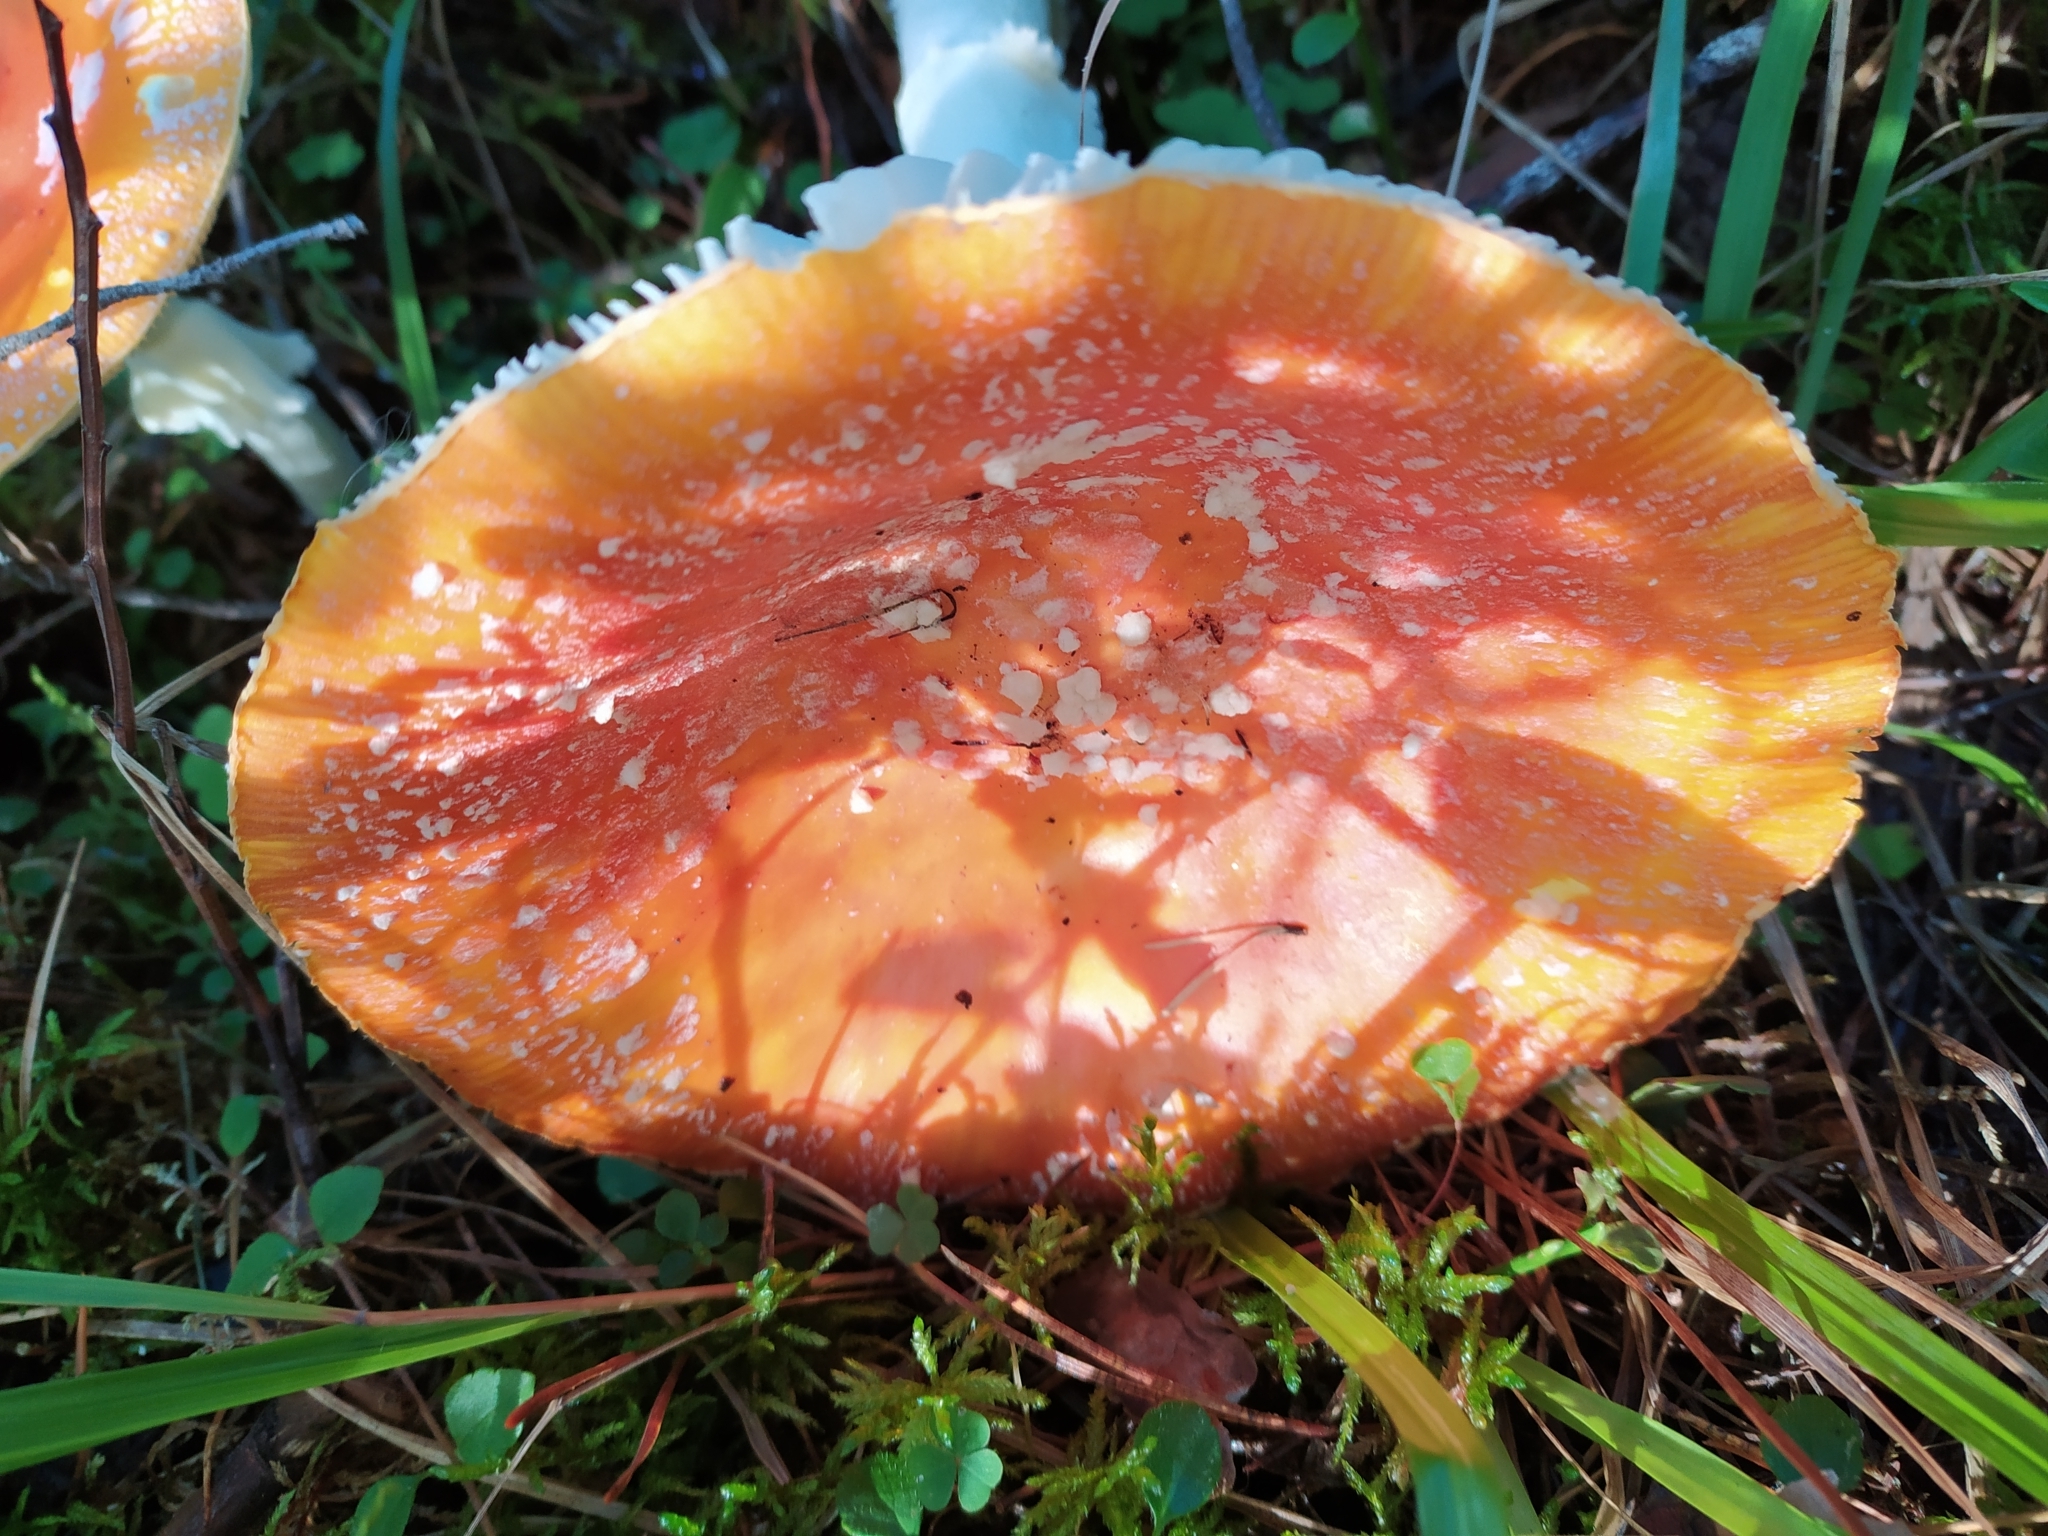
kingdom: Fungi
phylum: Basidiomycota
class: Agaricomycetes
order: Agaricales
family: Amanitaceae
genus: Amanita
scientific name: Amanita muscaria
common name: Fly agaric
